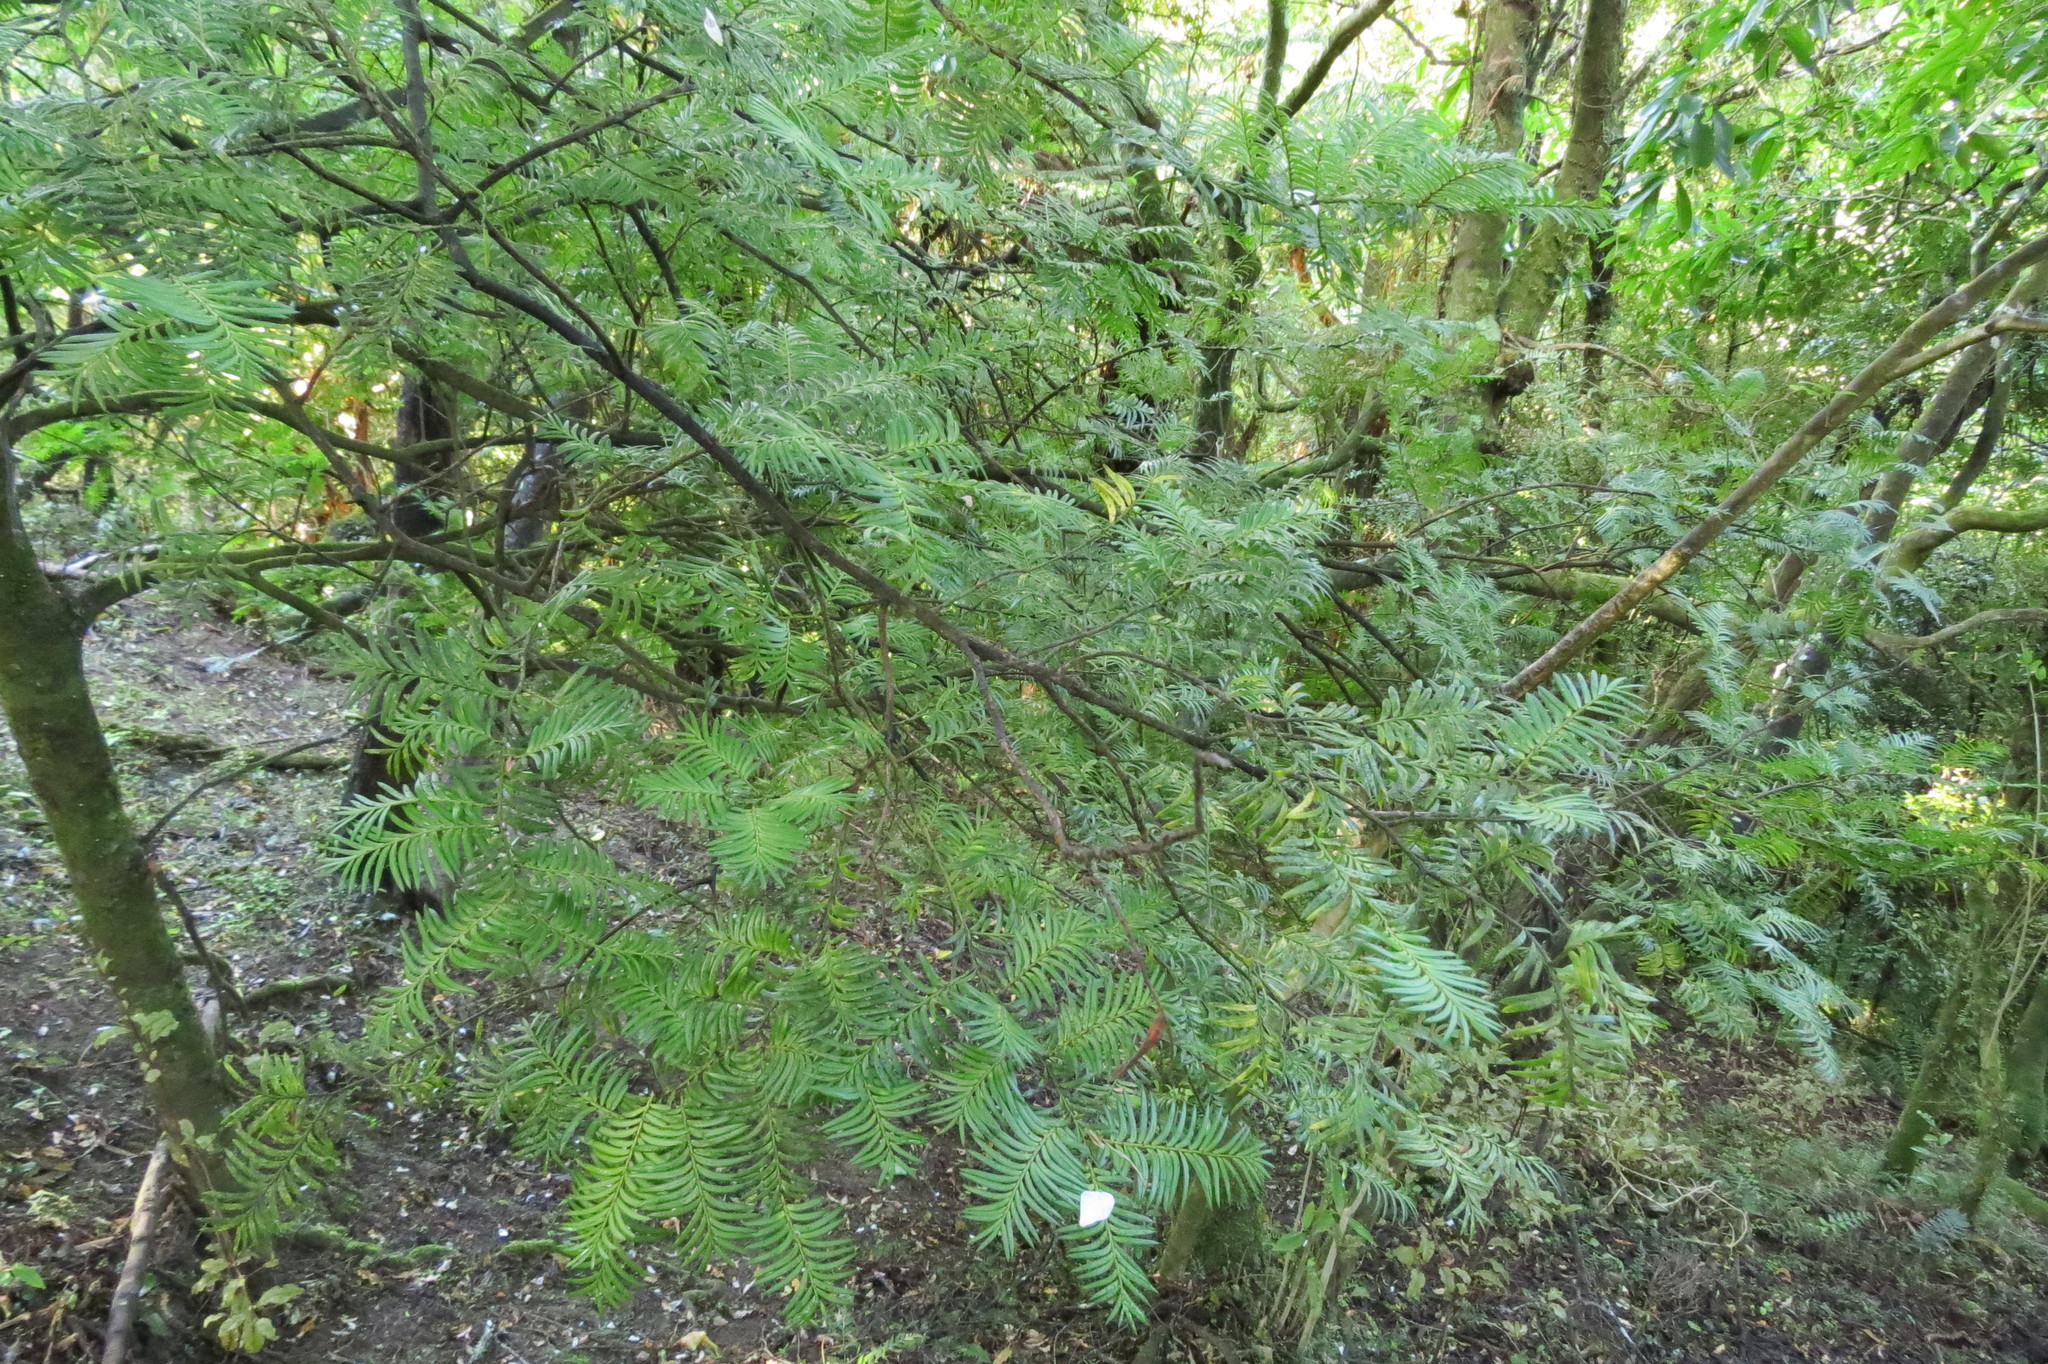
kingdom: Plantae
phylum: Tracheophyta
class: Pinopsida
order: Pinales
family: Podocarpaceae
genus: Prumnopitys
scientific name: Prumnopitys ferruginea
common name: Brown pine
